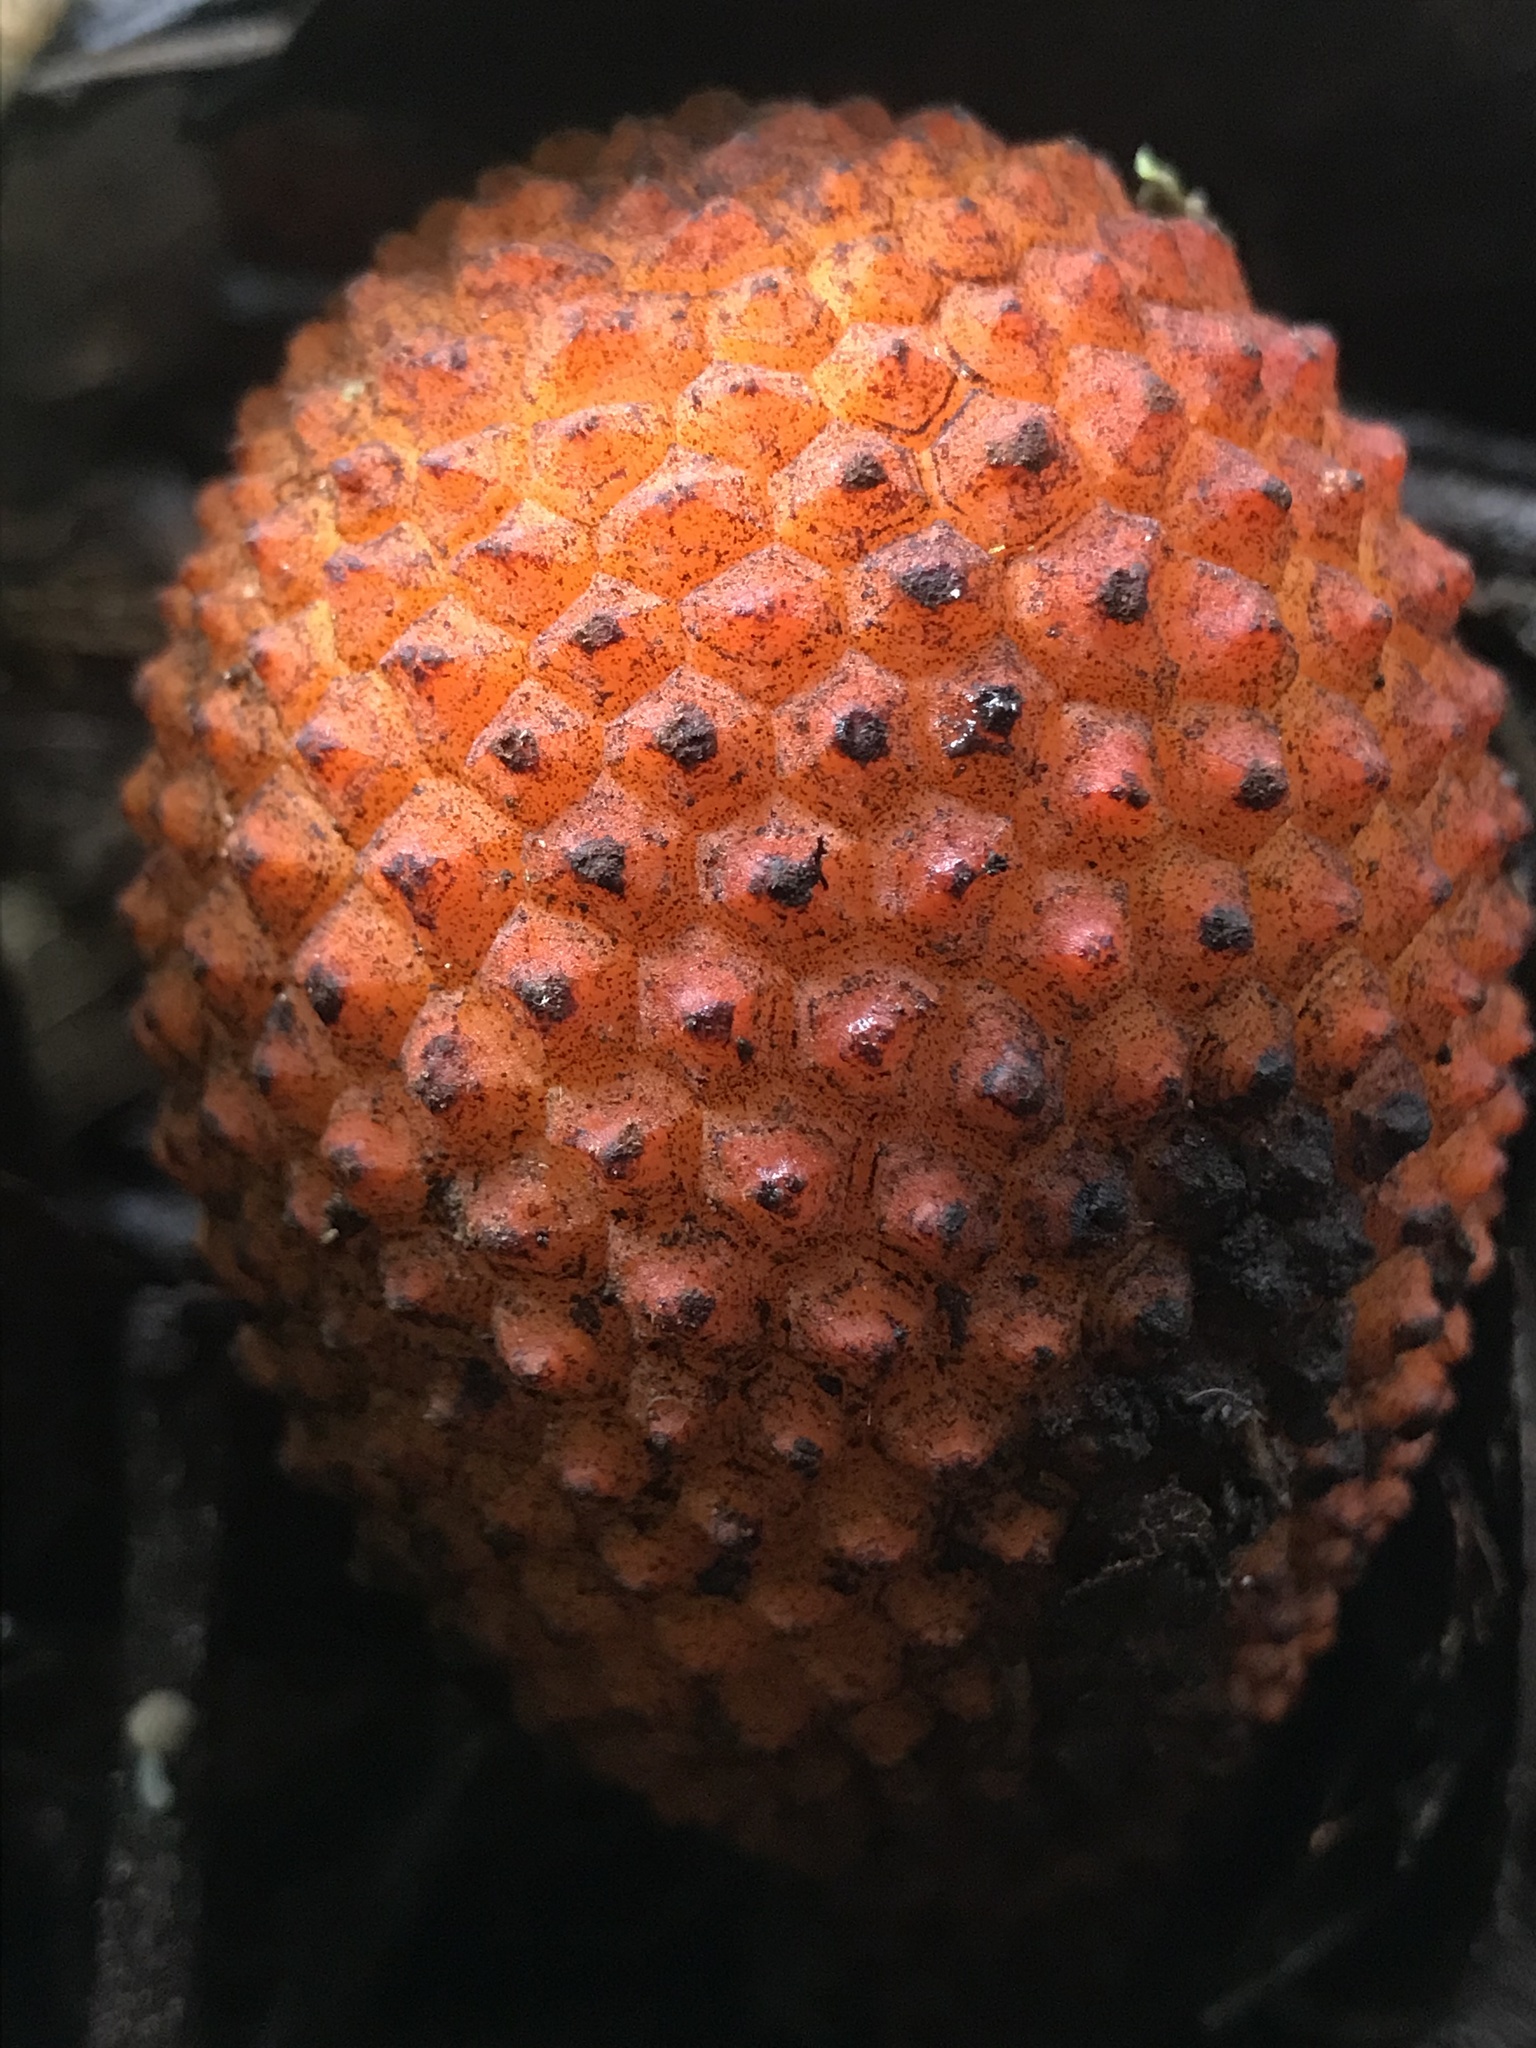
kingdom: Plantae
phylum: Tracheophyta
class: Magnoliopsida
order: Santalales
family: Balanophoraceae
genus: Corynaea
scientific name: Corynaea crassa
